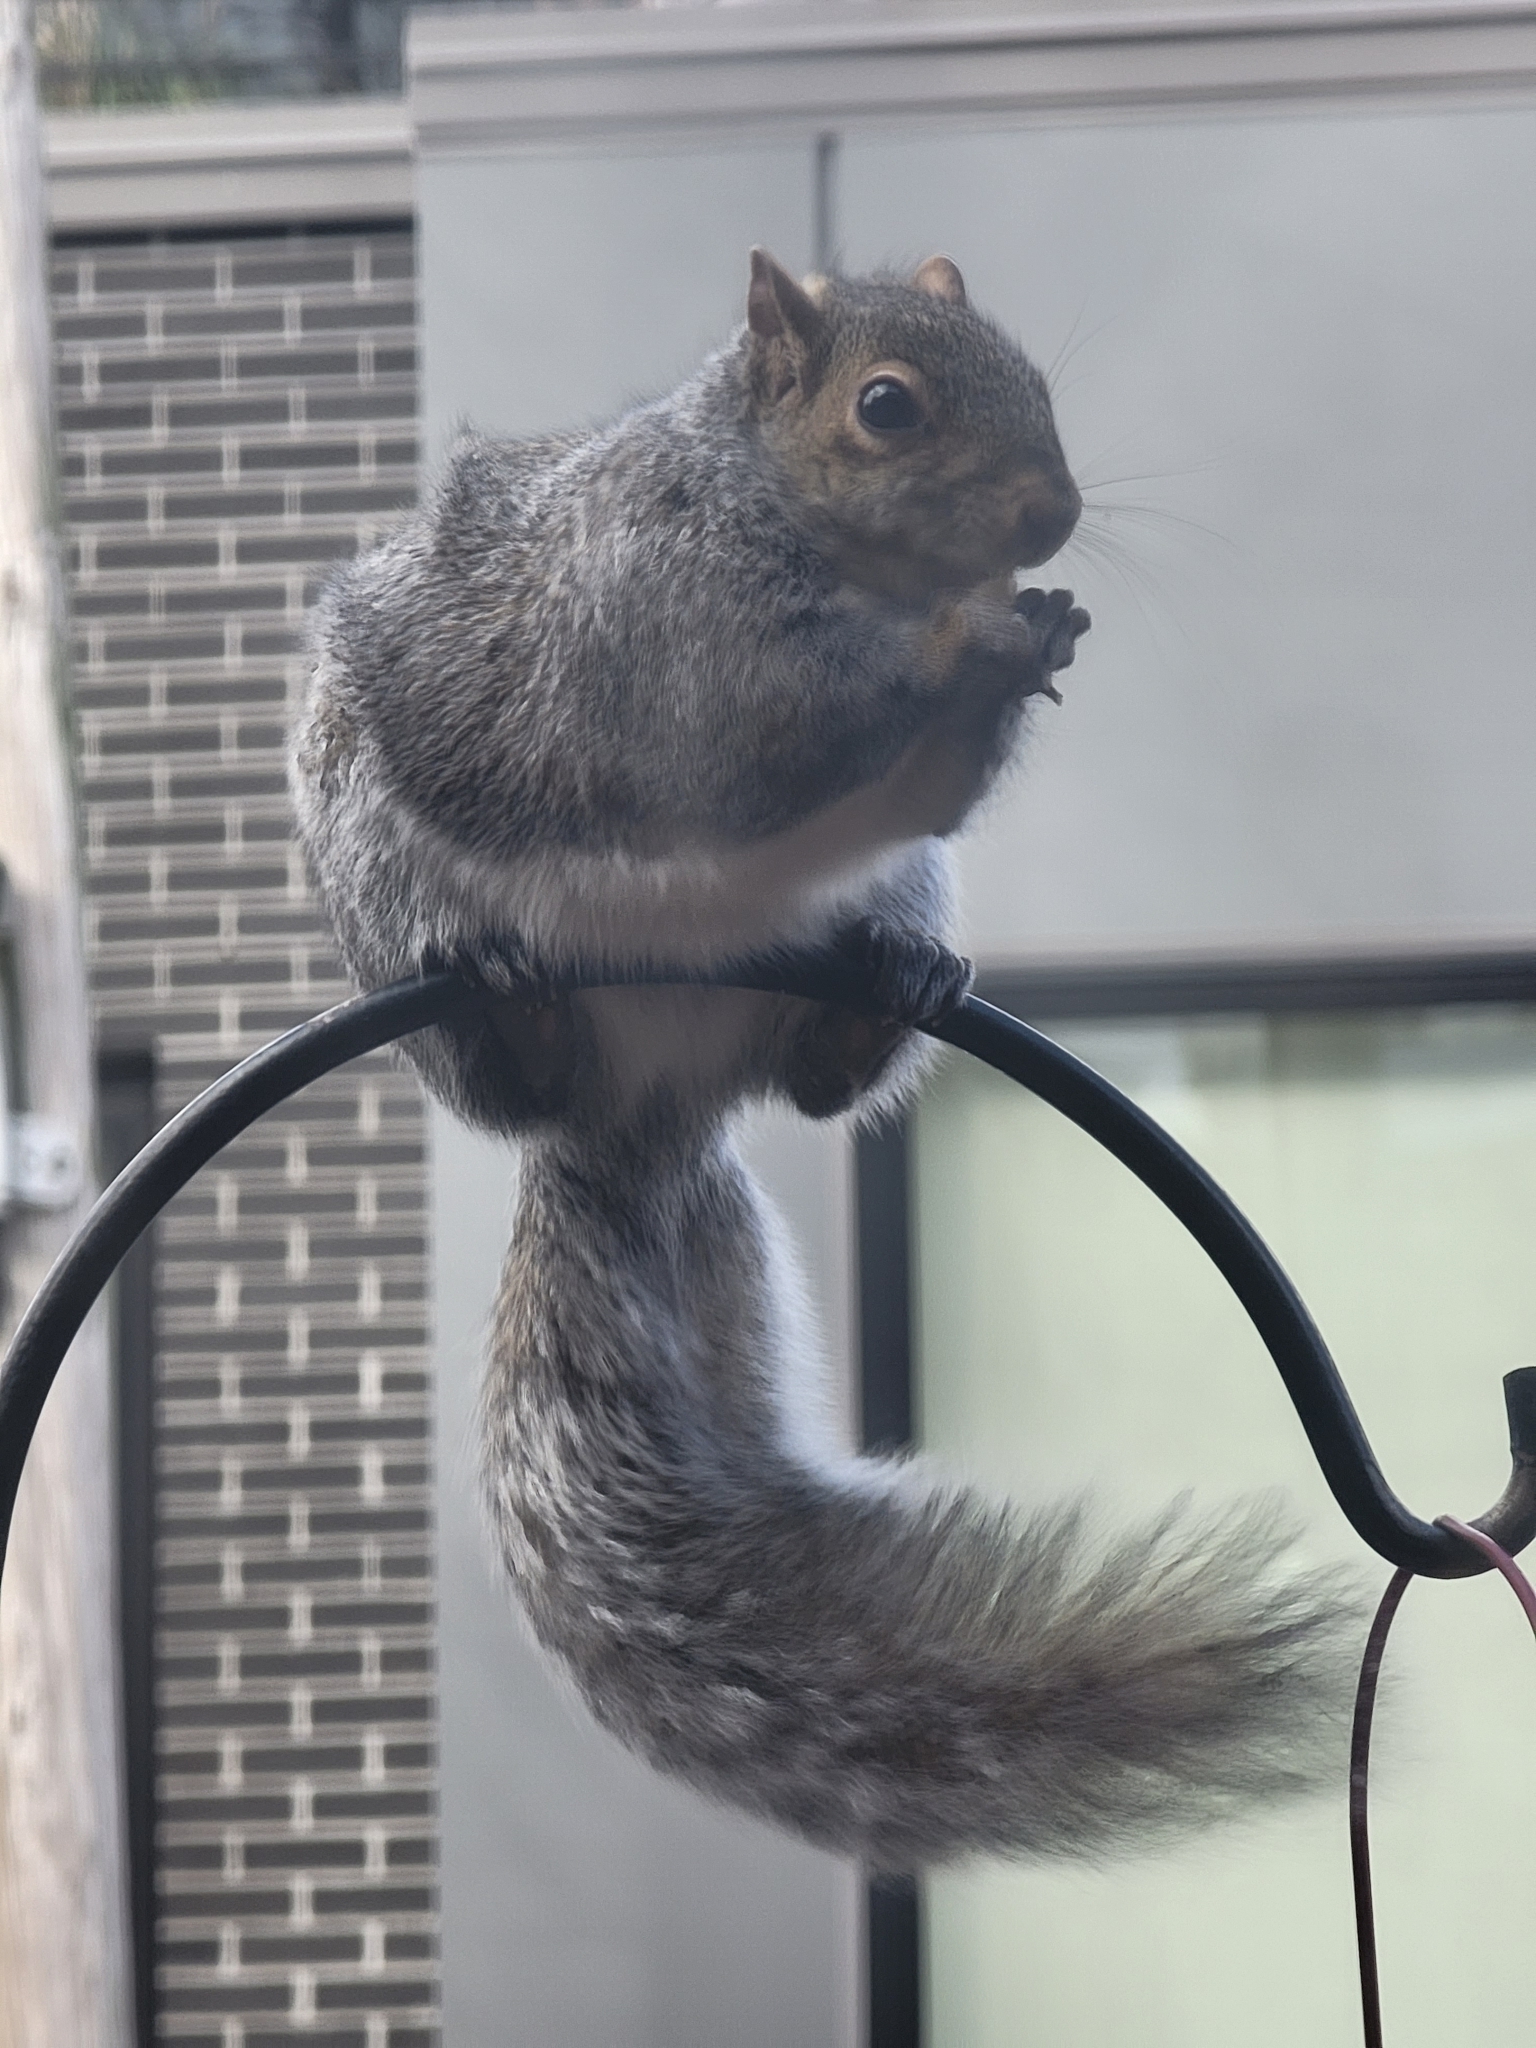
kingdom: Animalia
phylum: Chordata
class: Mammalia
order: Rodentia
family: Sciuridae
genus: Sciurus
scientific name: Sciurus carolinensis
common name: Eastern gray squirrel
